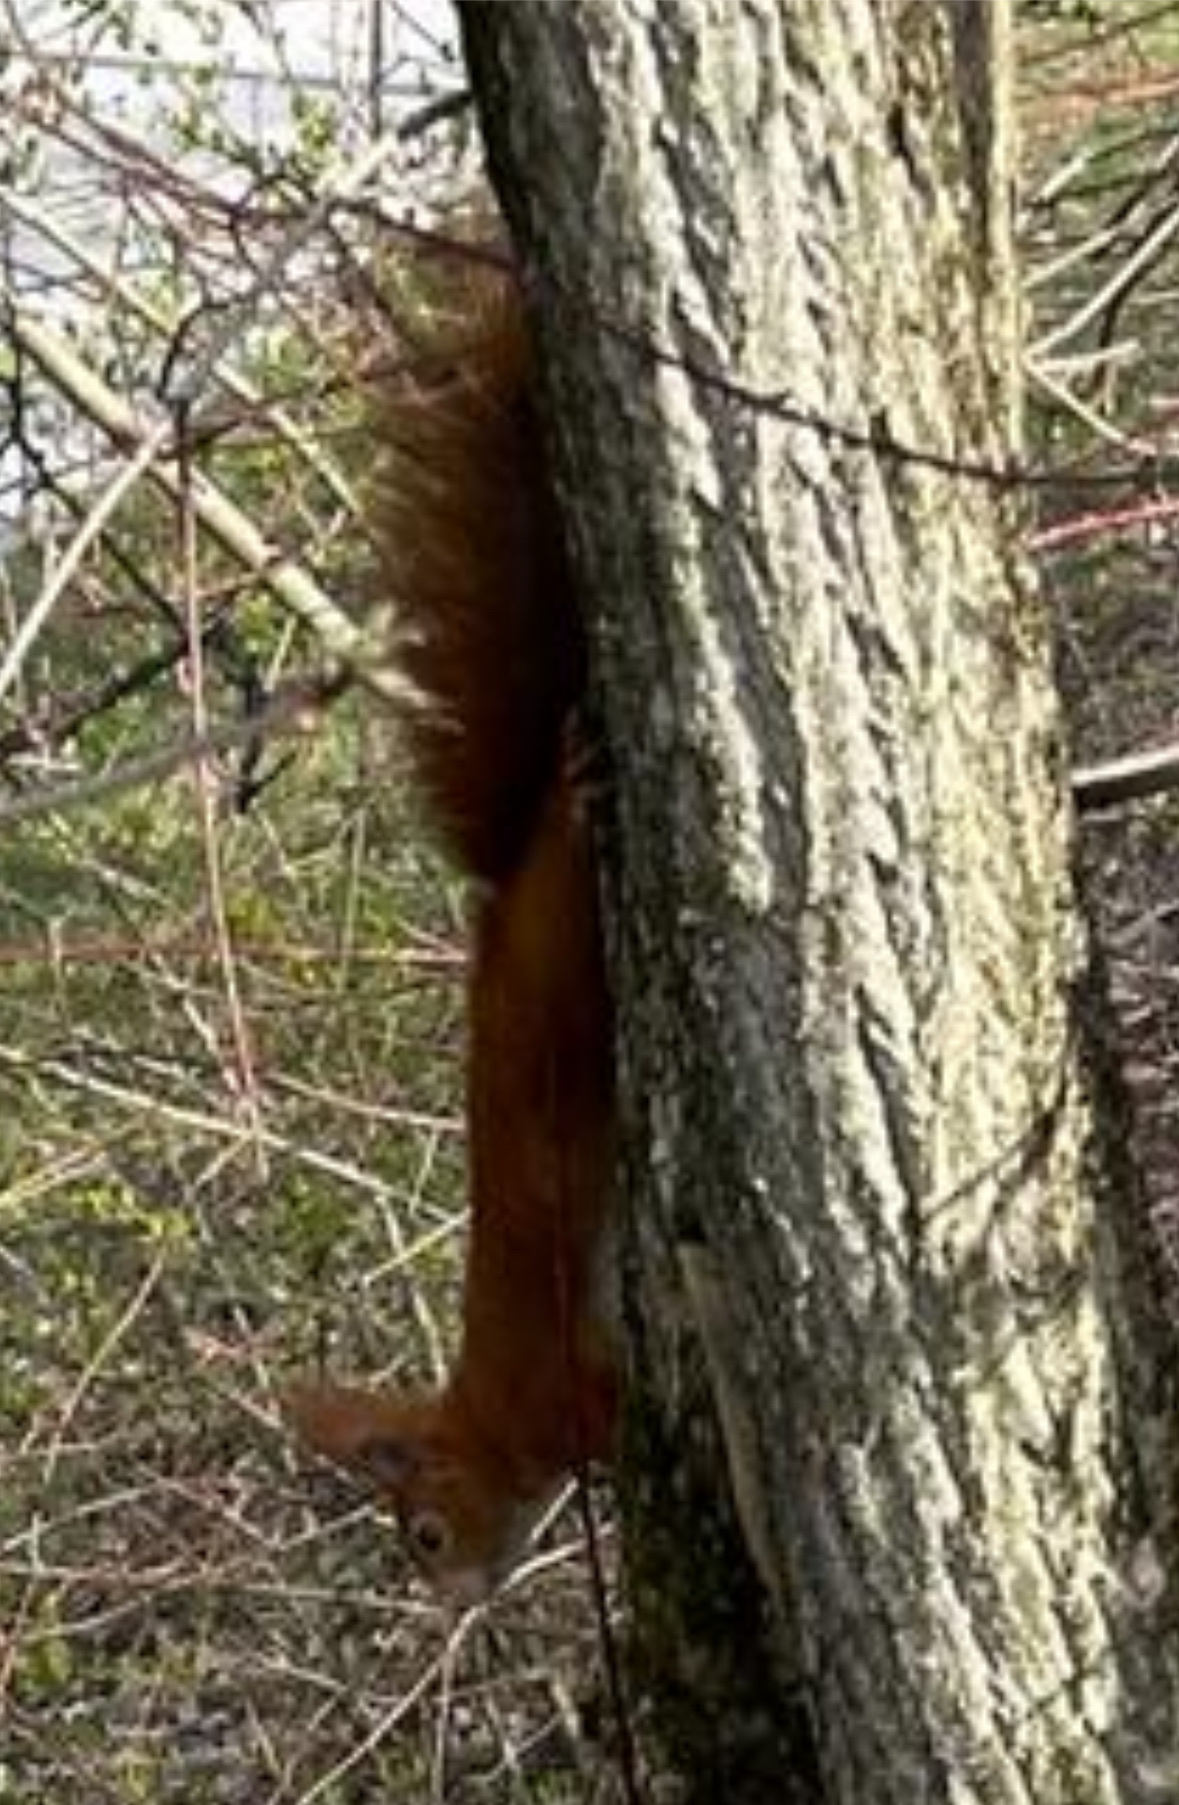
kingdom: Animalia
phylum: Chordata
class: Mammalia
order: Rodentia
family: Sciuridae
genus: Sciurus
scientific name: Sciurus vulgaris
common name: Eurasian red squirrel
